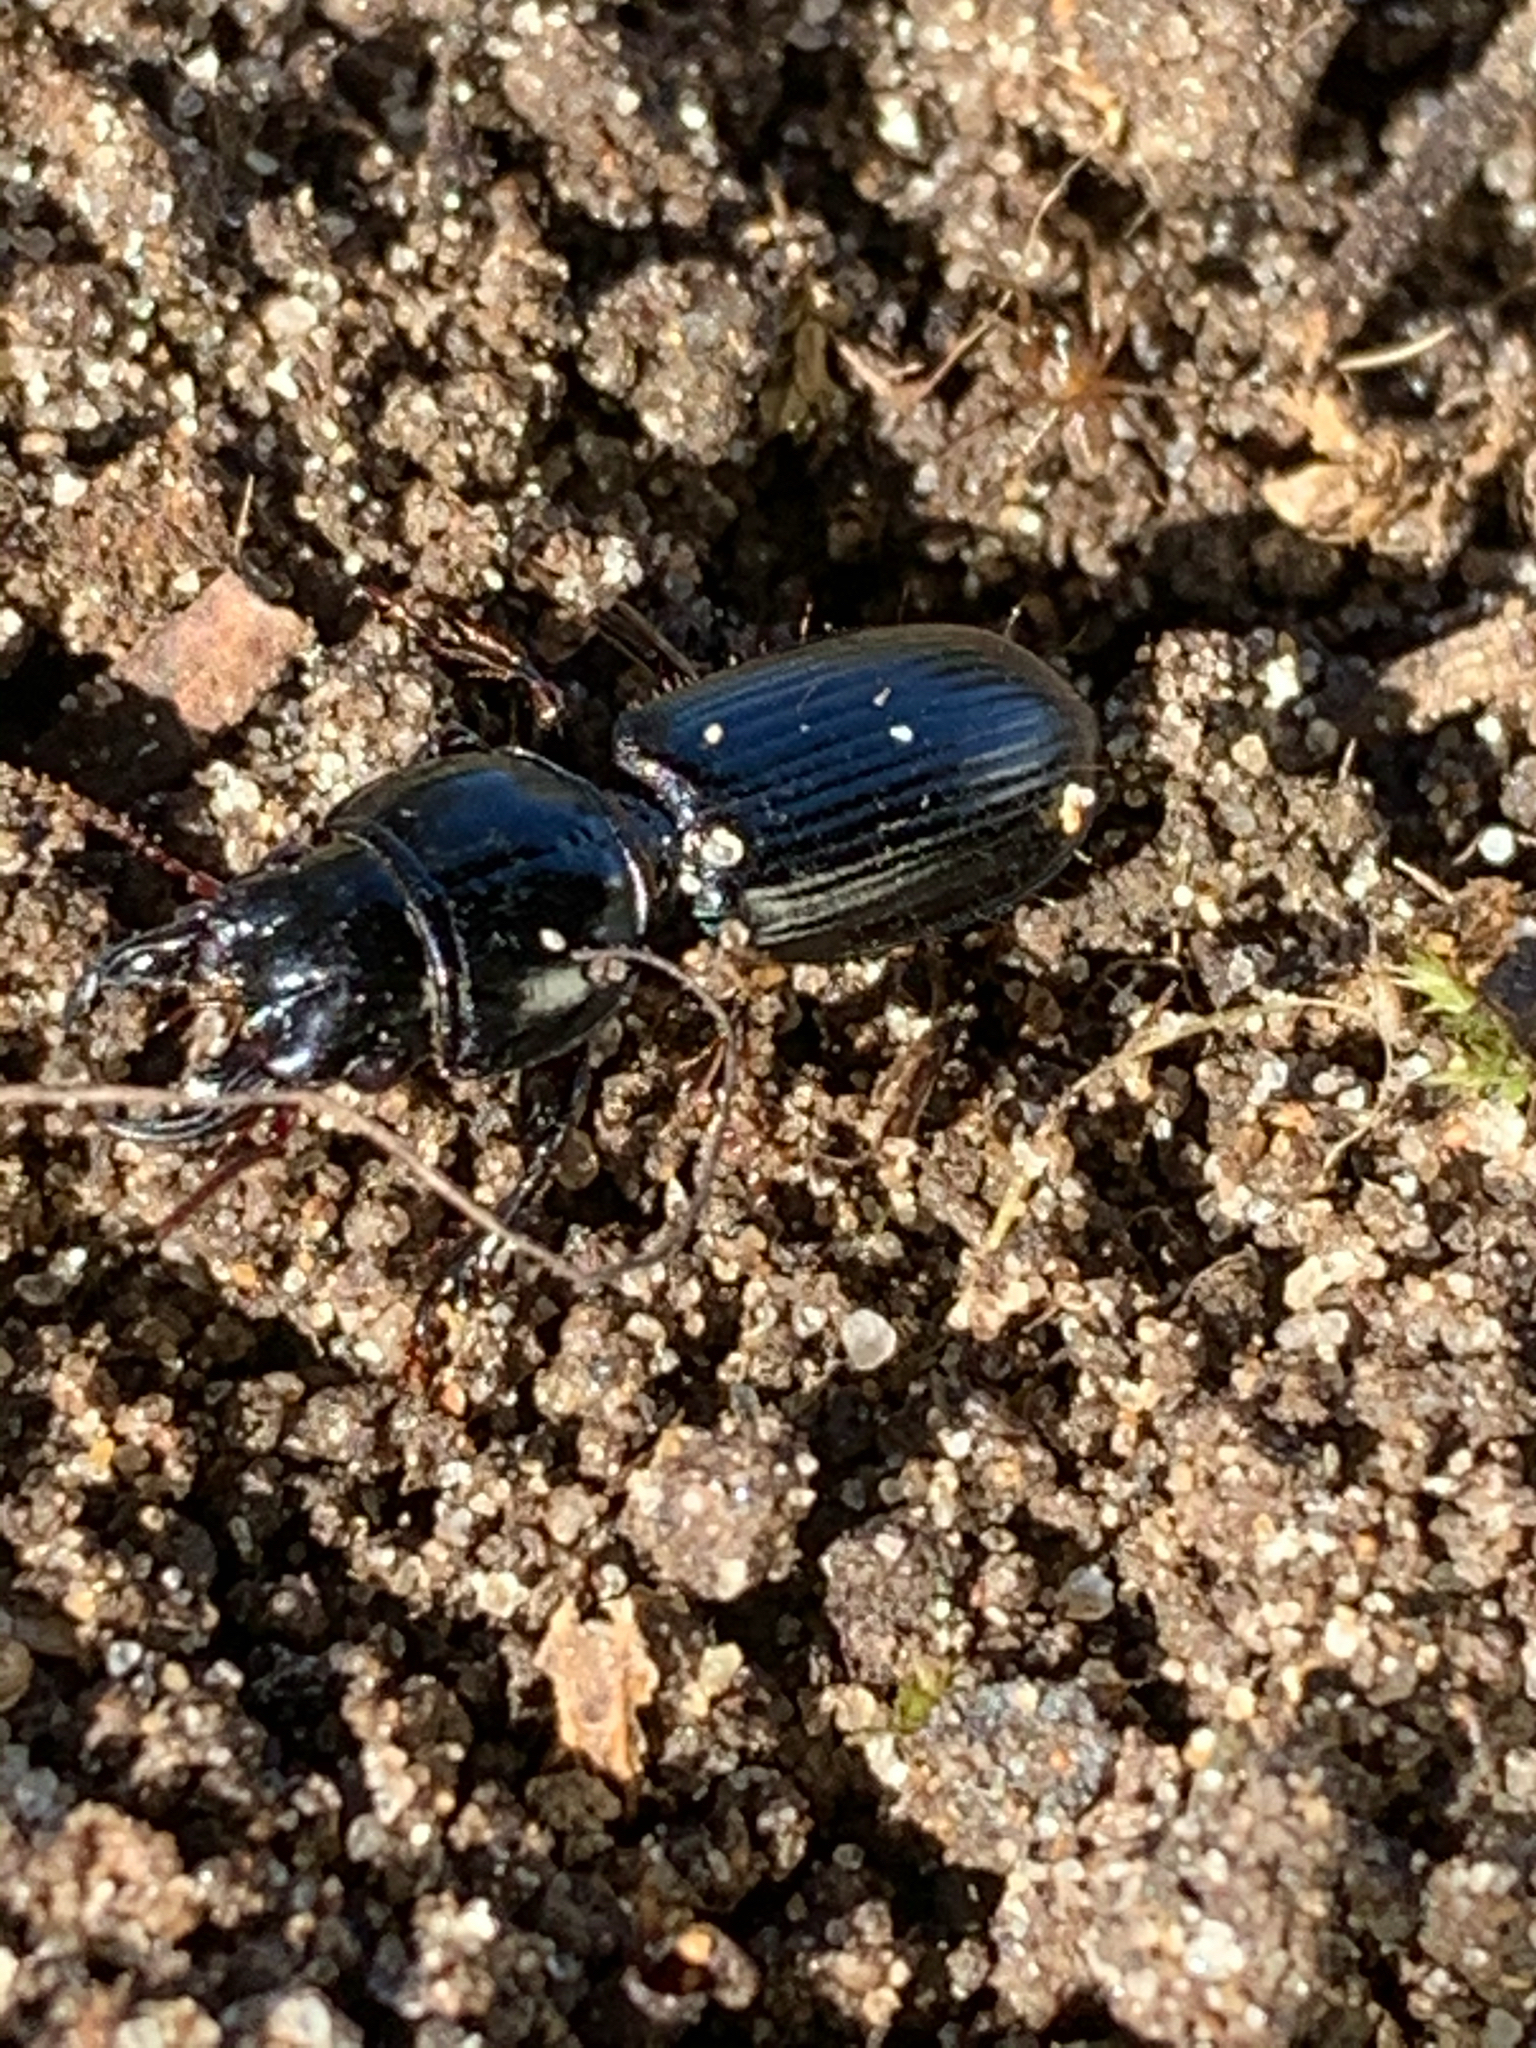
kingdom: Animalia
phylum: Arthropoda
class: Insecta
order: Coleoptera
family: Carabidae
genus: Scarites
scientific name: Scarites subterraneus
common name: Big-headed ground beetle
